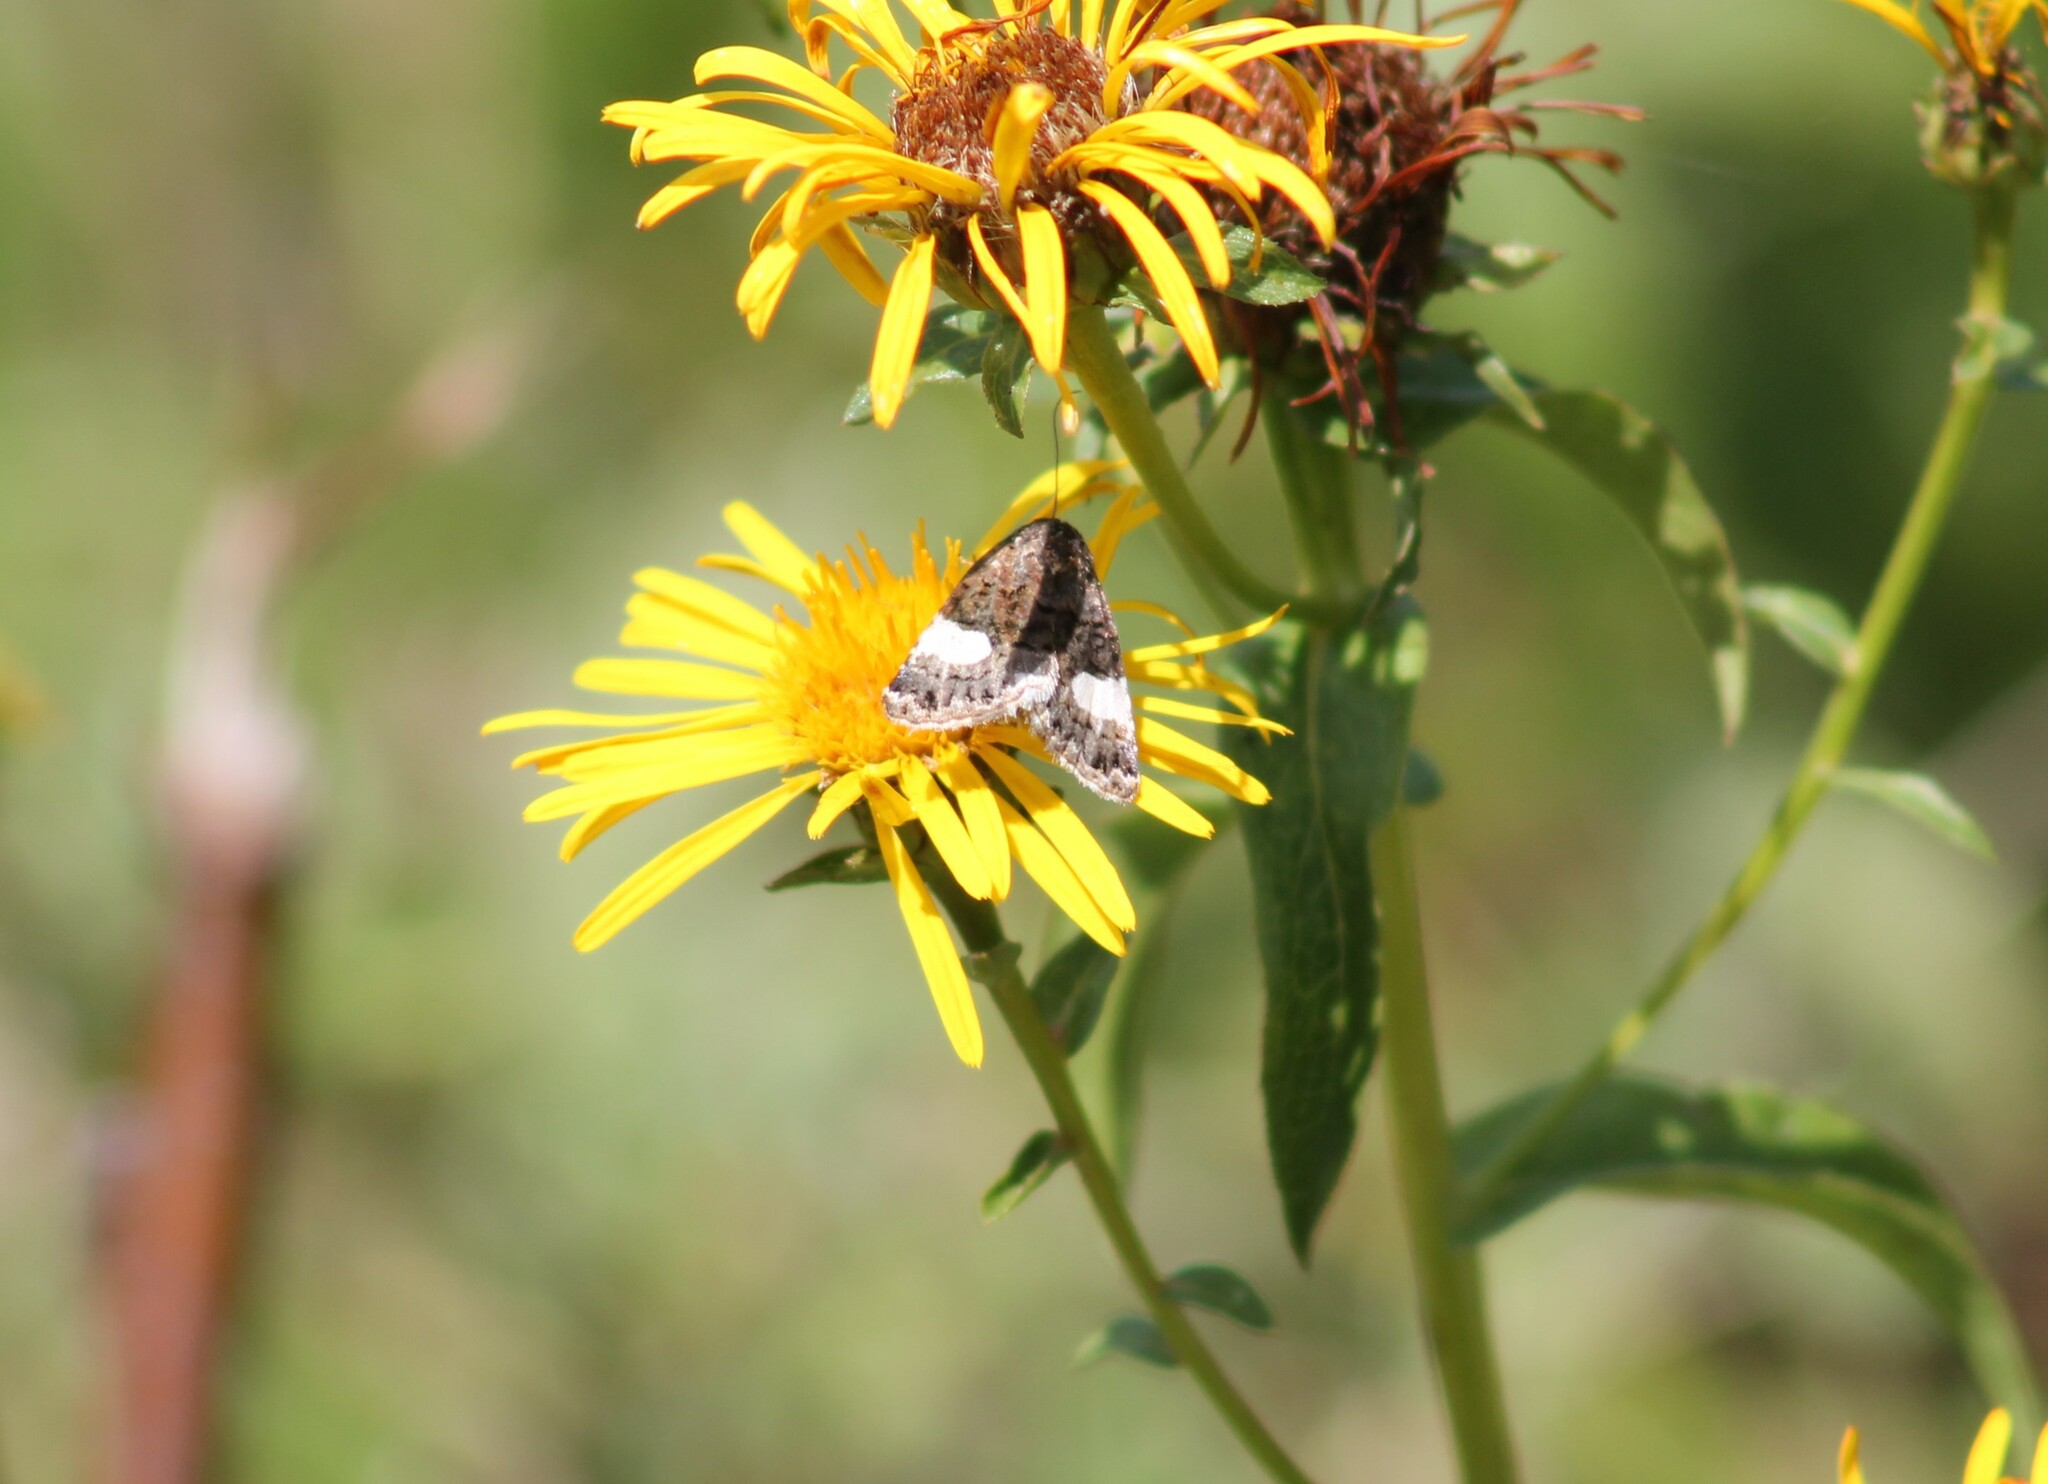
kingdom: Animalia
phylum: Arthropoda
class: Insecta
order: Lepidoptera
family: Erebidae
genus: Tyta
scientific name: Tyta luctuosa
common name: Four-spotted
